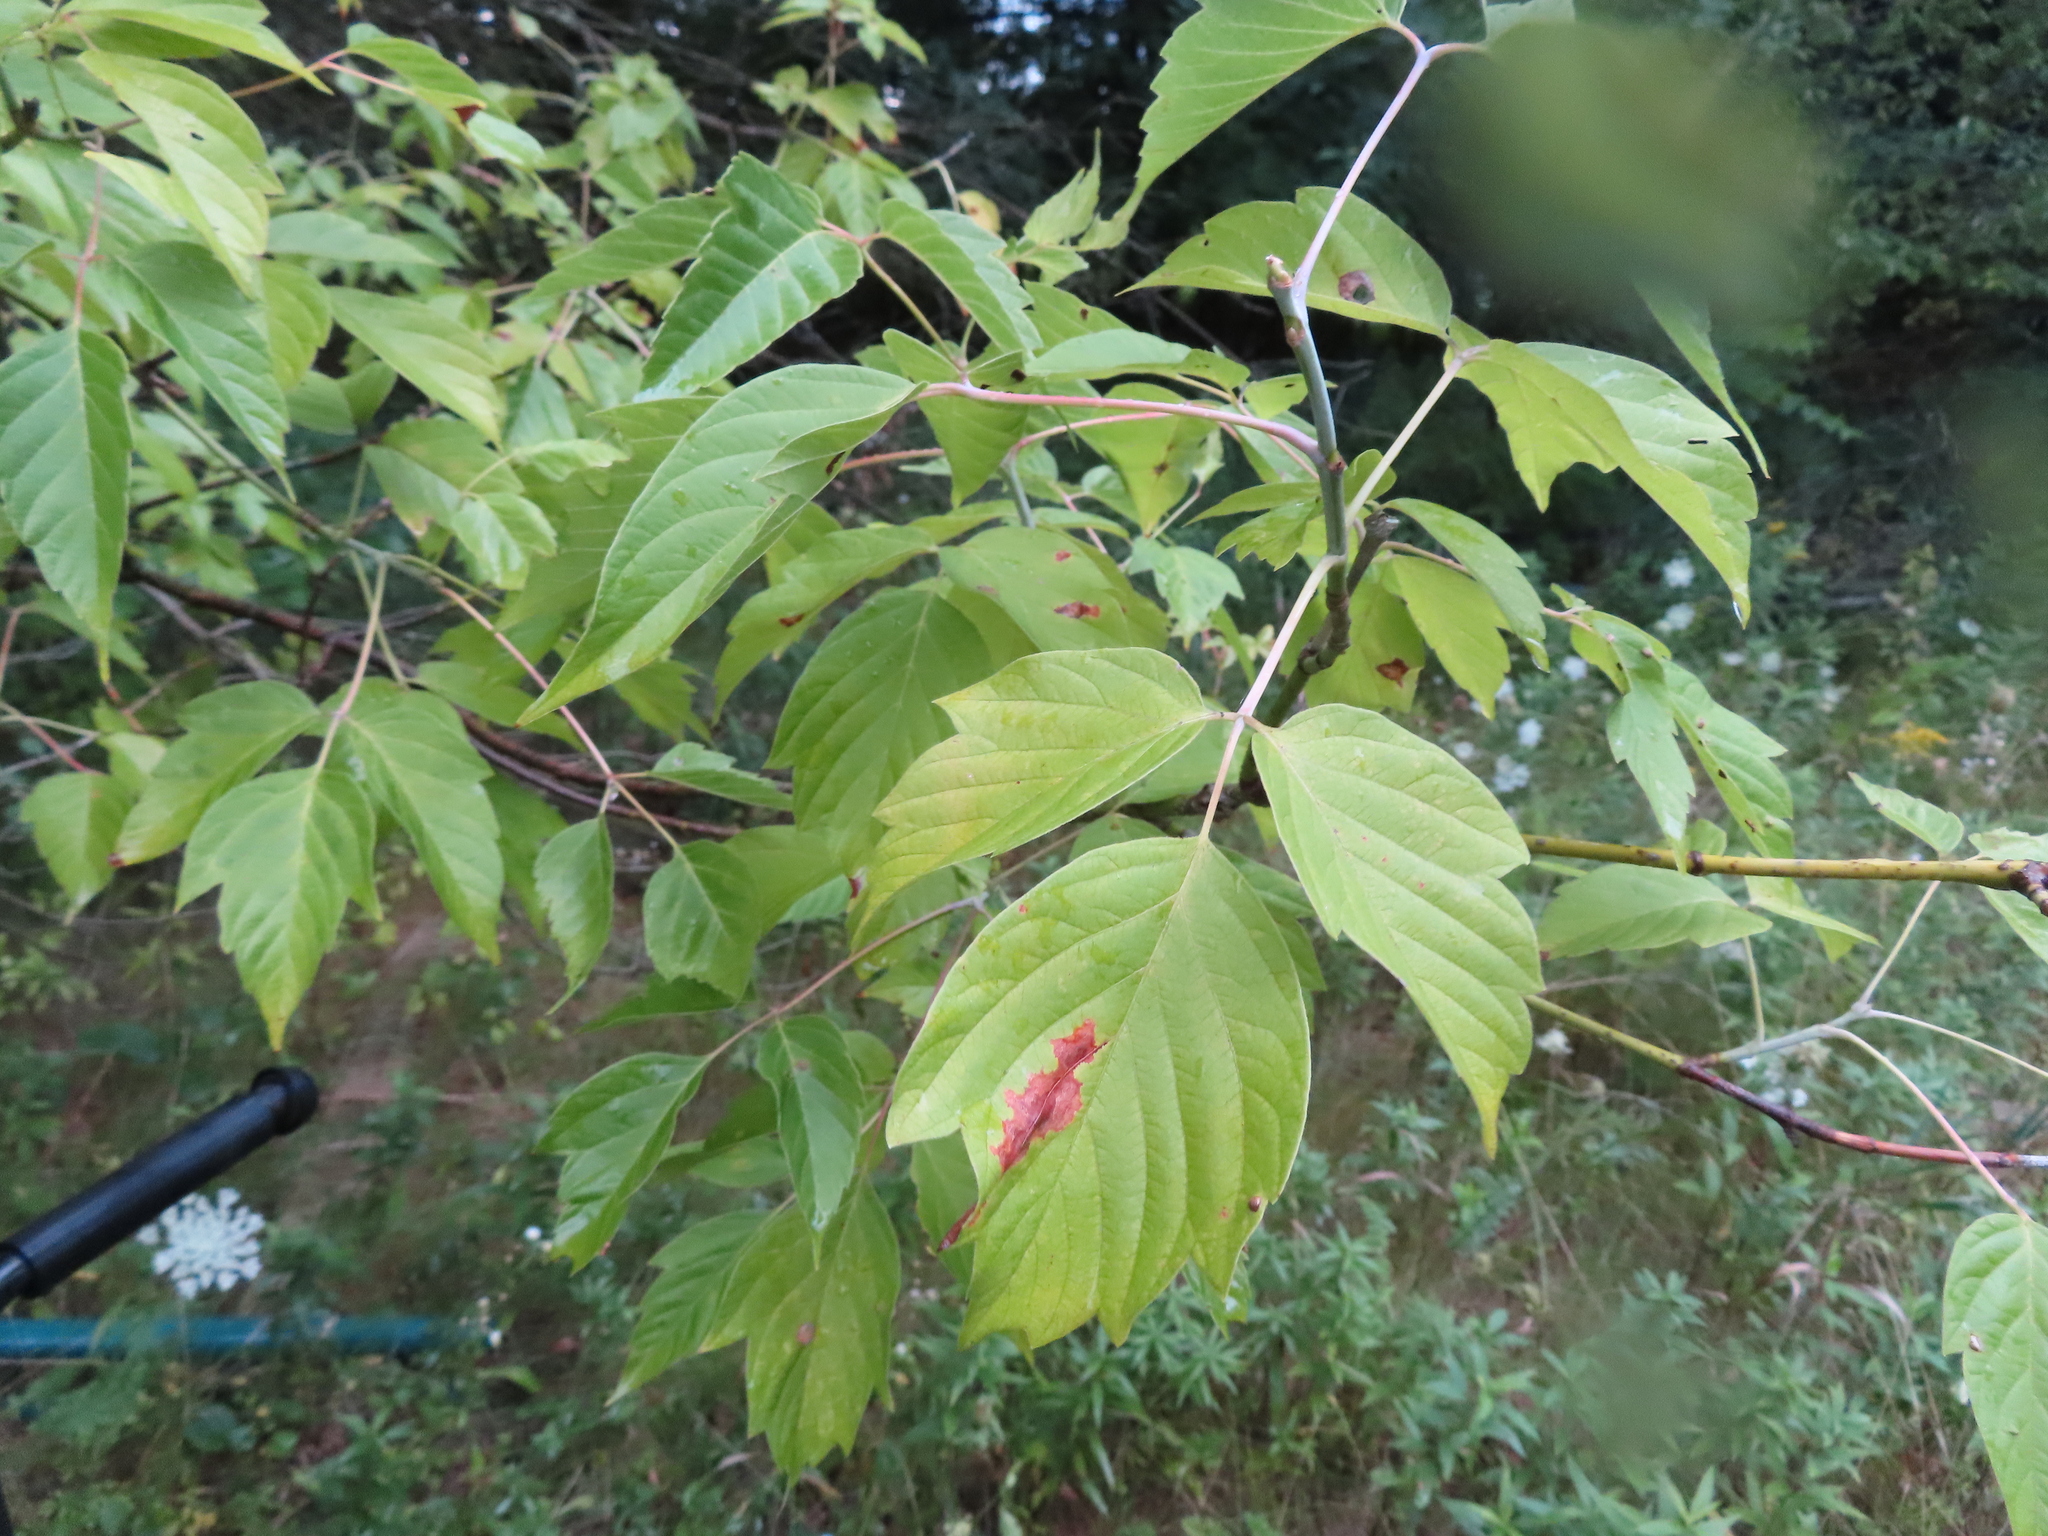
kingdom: Plantae
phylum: Tracheophyta
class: Magnoliopsida
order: Sapindales
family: Sapindaceae
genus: Acer
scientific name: Acer negundo
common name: Ashleaf maple
